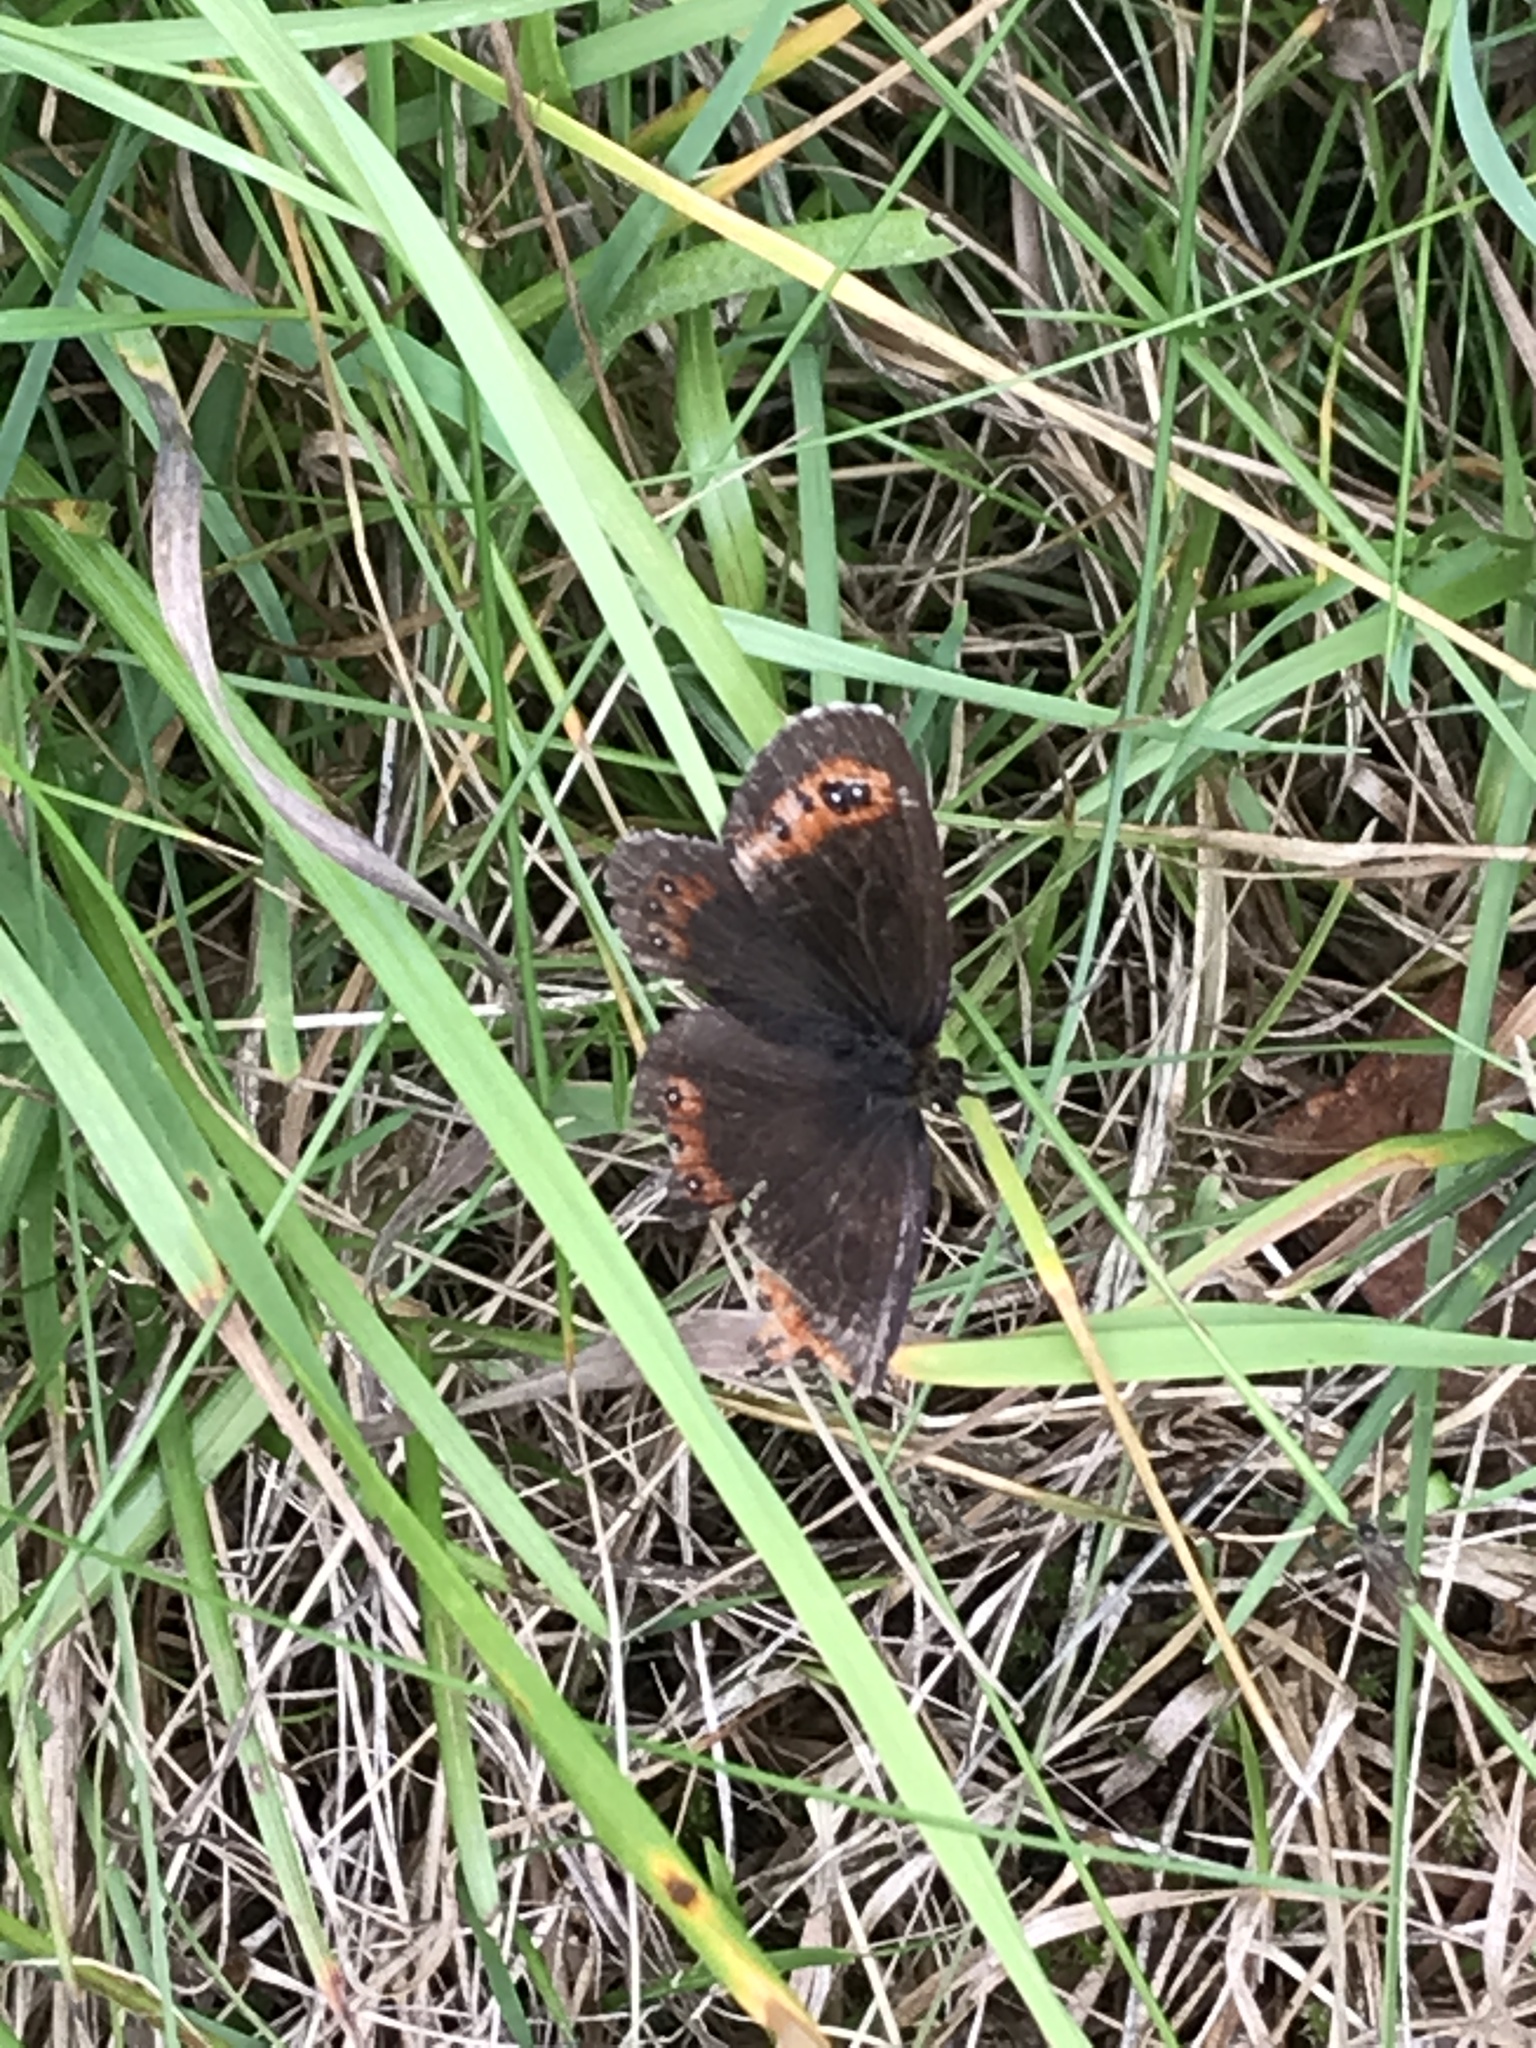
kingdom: Animalia
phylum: Arthropoda
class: Insecta
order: Lepidoptera
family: Nymphalidae
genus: Erebia
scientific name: Erebia aethiops
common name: Scotch argus
